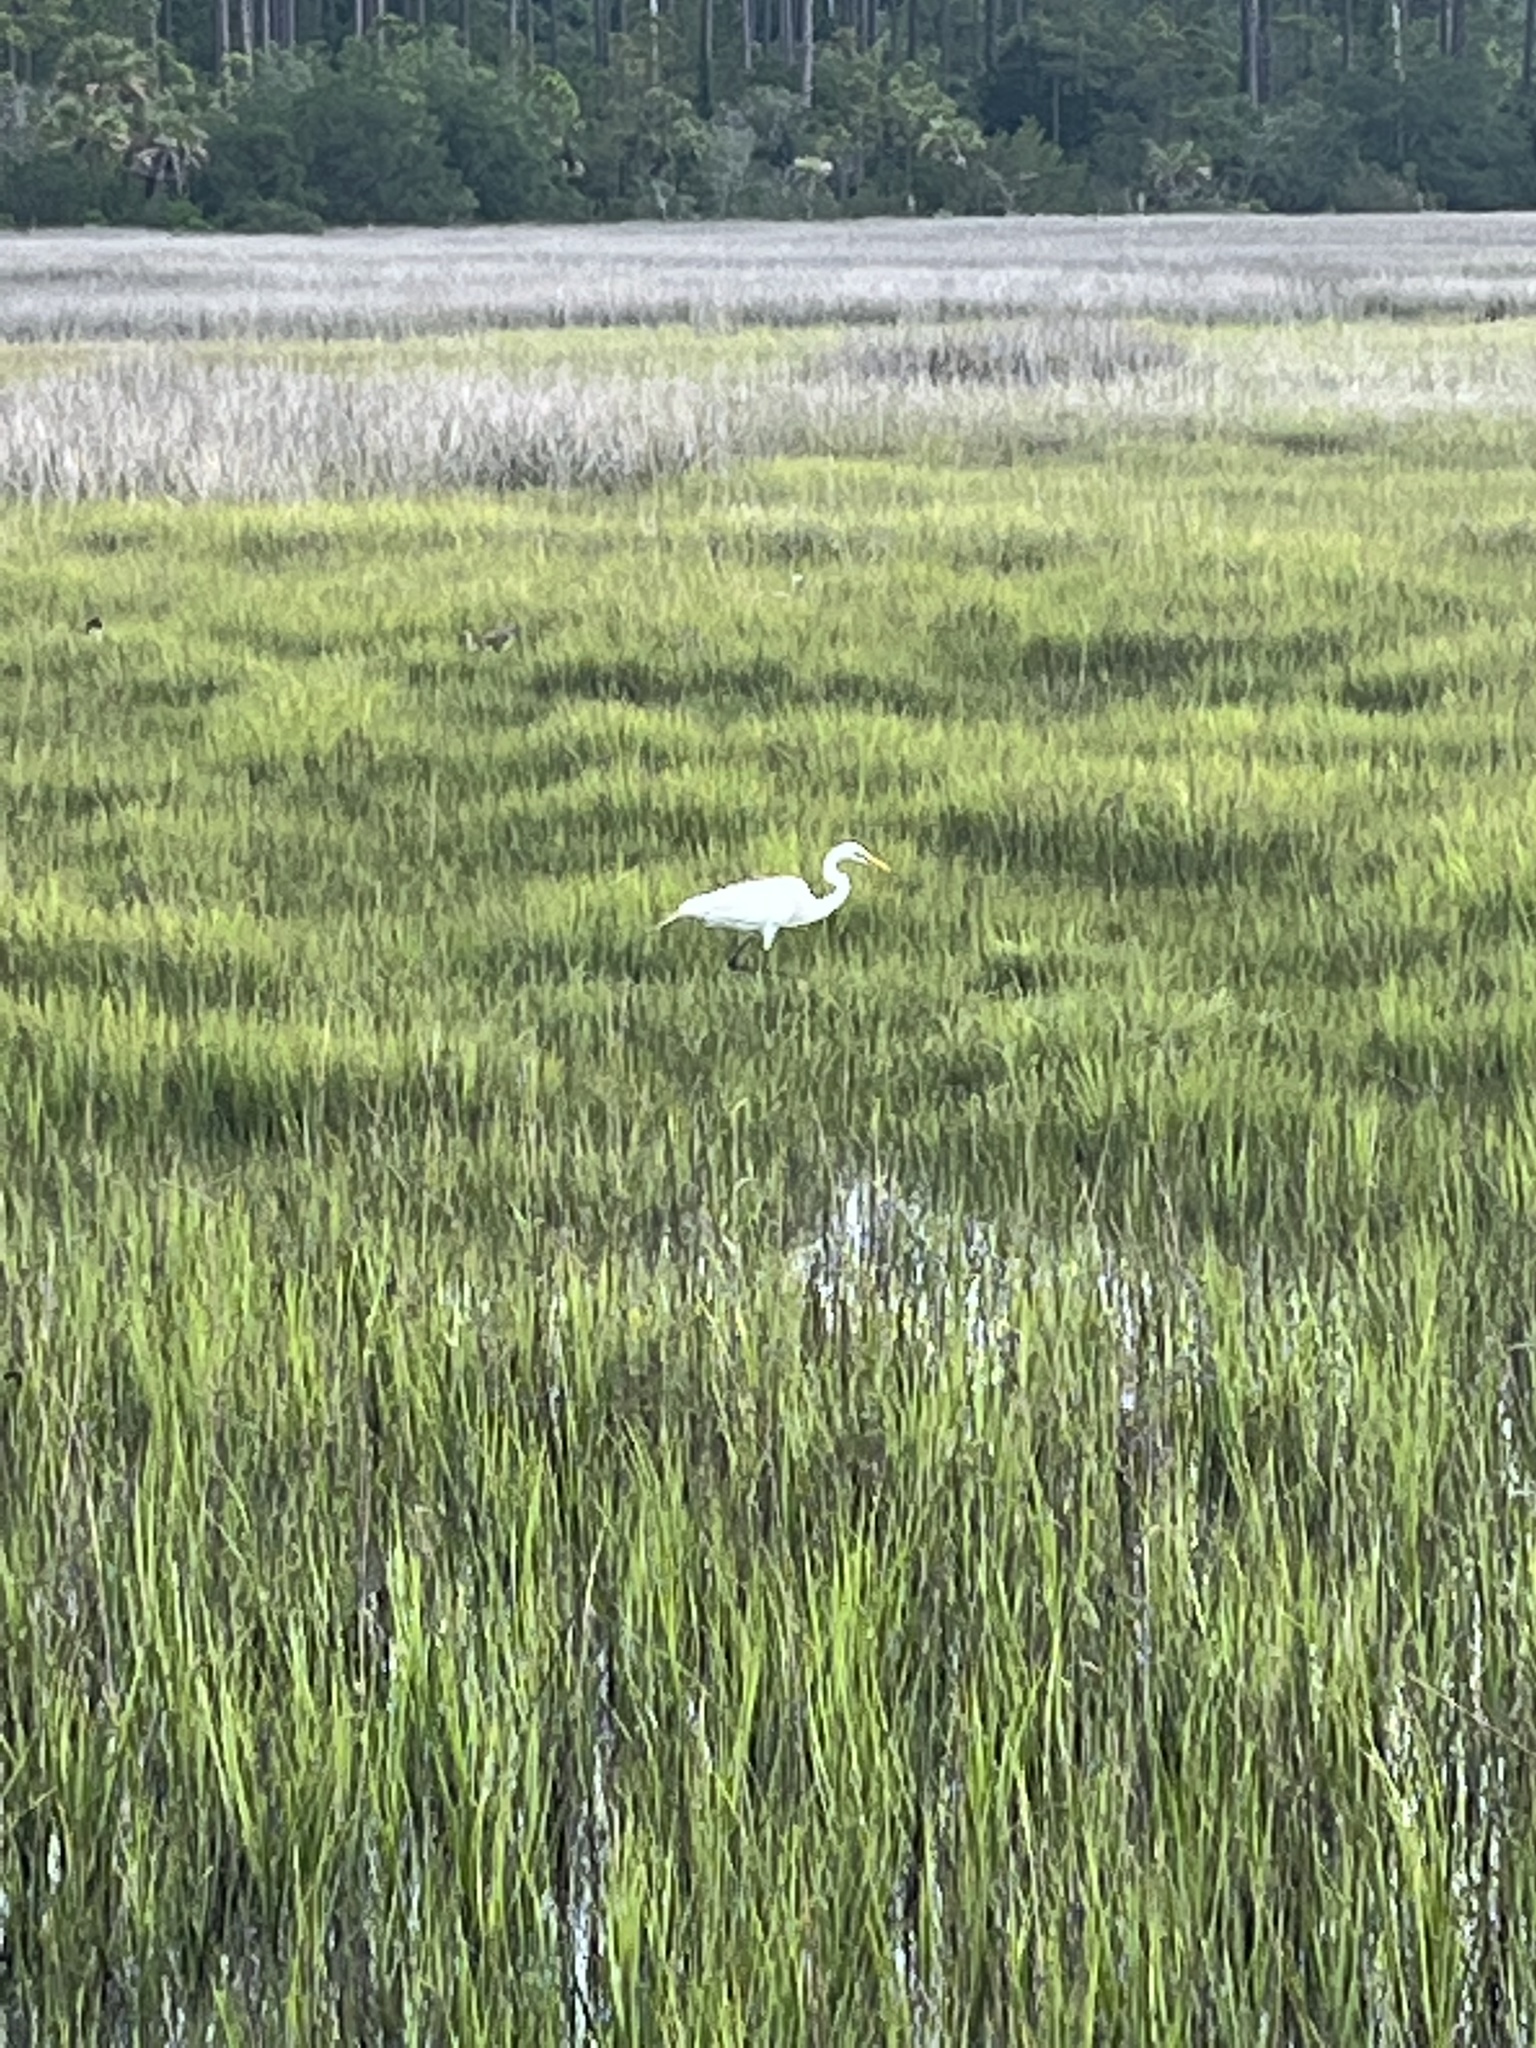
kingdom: Animalia
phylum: Chordata
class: Aves
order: Pelecaniformes
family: Ardeidae
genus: Ardea
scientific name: Ardea alba
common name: Great egret
